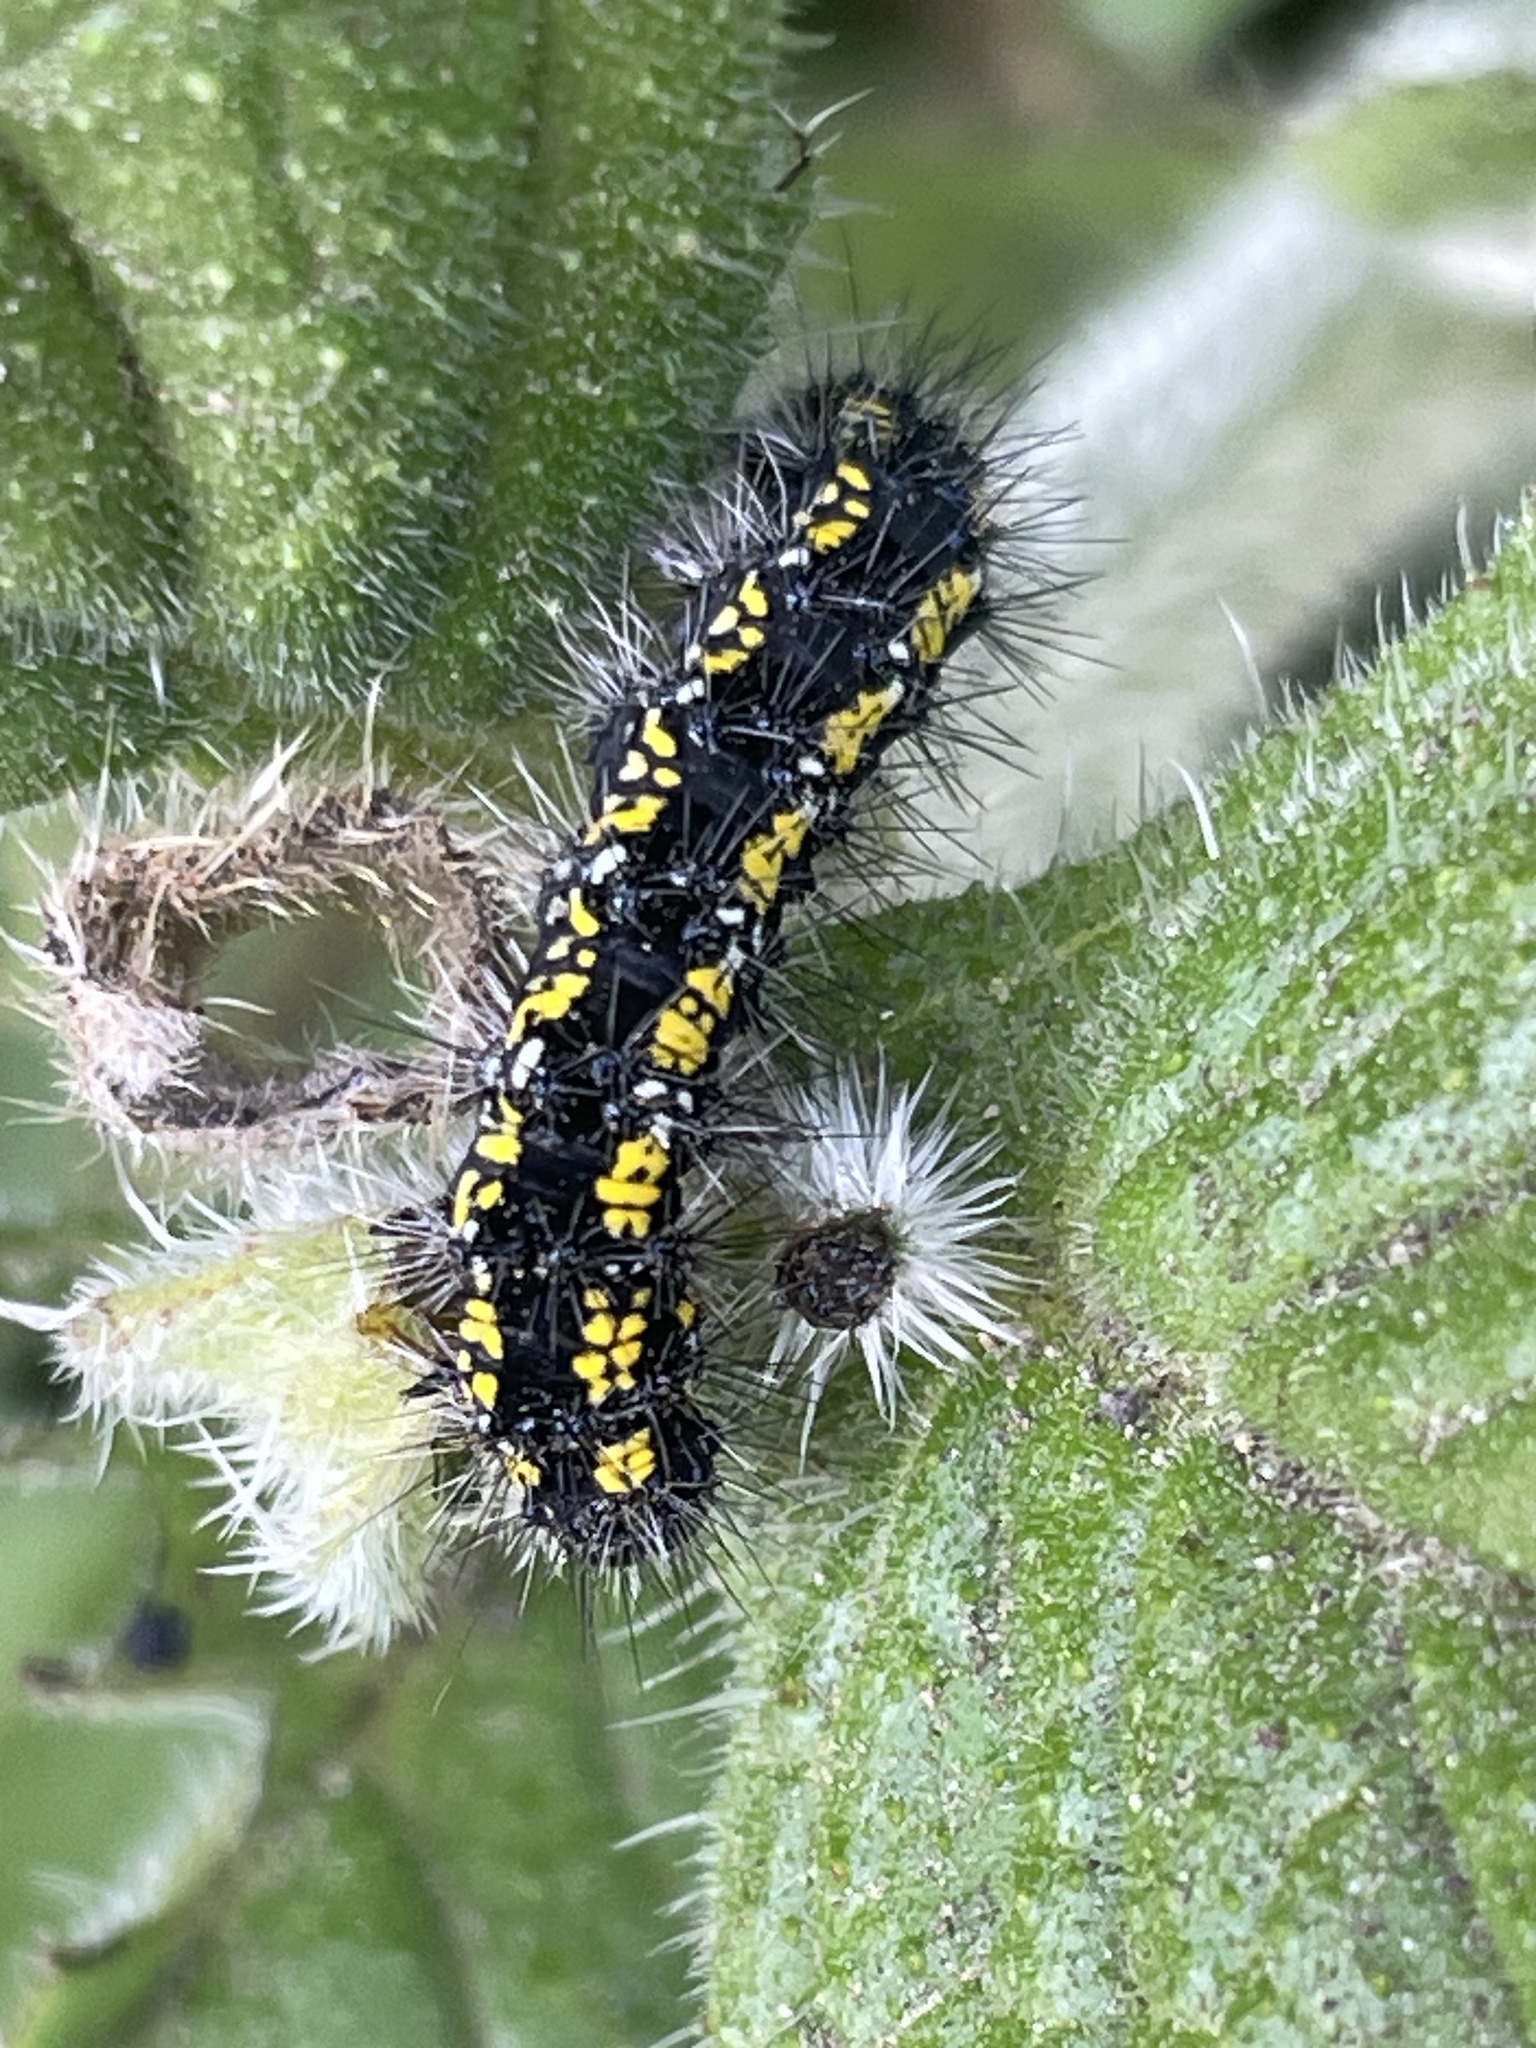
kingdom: Animalia
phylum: Arthropoda
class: Insecta
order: Lepidoptera
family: Erebidae
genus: Callimorpha
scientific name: Callimorpha dominula
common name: Scarlet tiger
